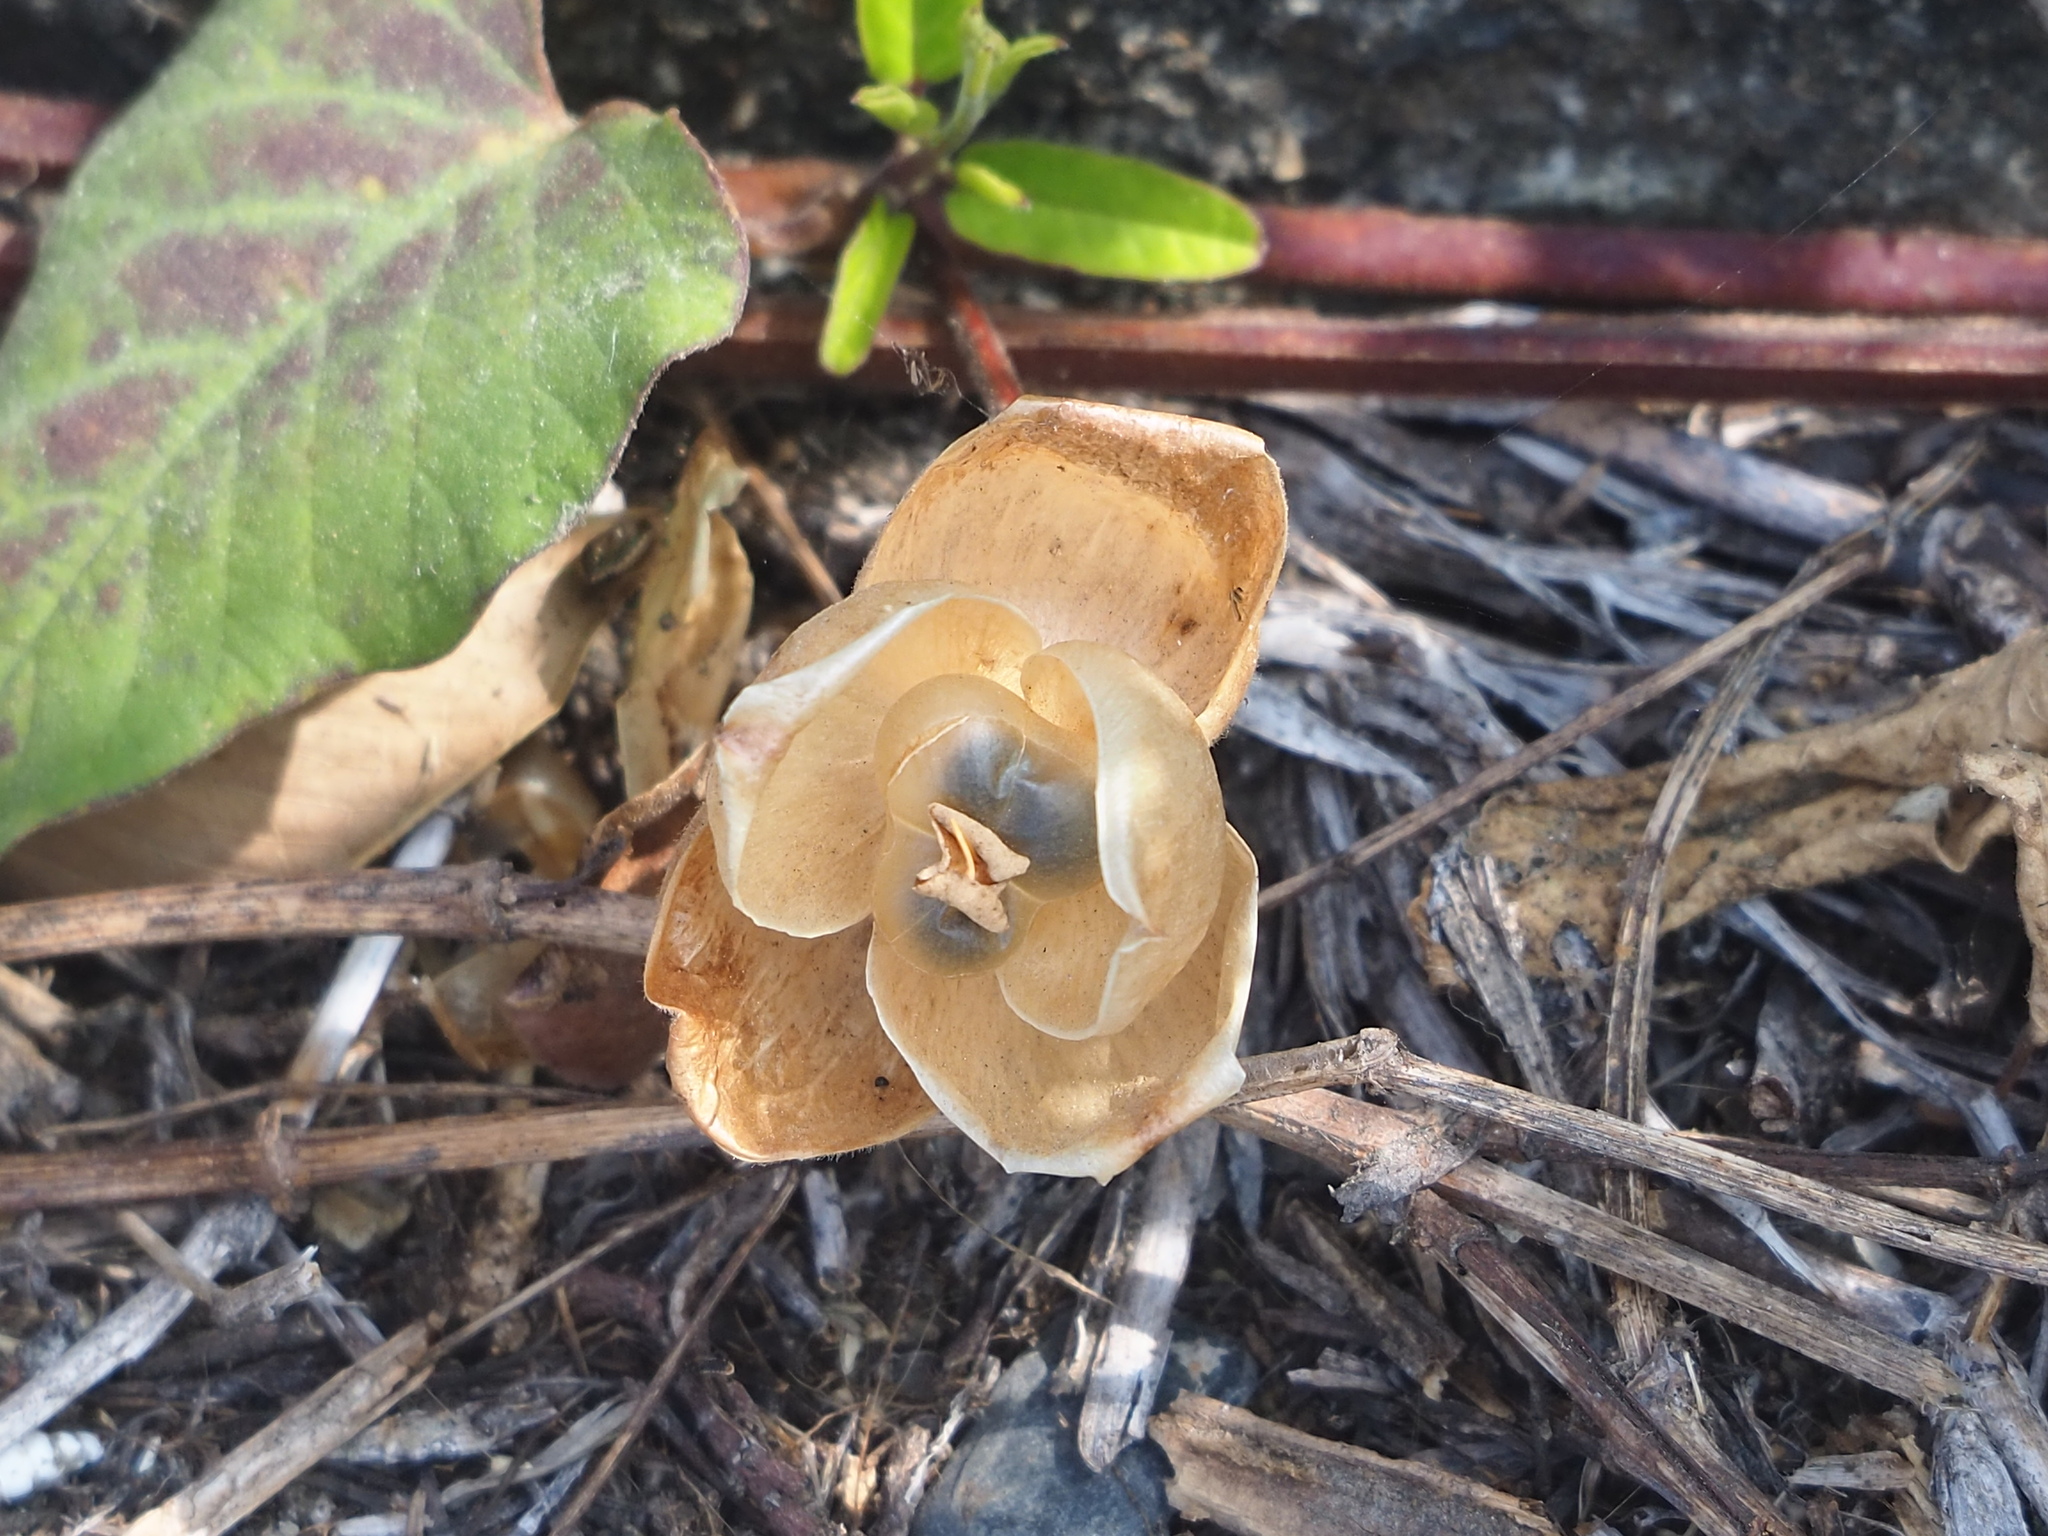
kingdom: Plantae
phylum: Tracheophyta
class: Magnoliopsida
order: Solanales
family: Convolvulaceae
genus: Operculina
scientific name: Operculina turpethum
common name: Transparent wood-rose
